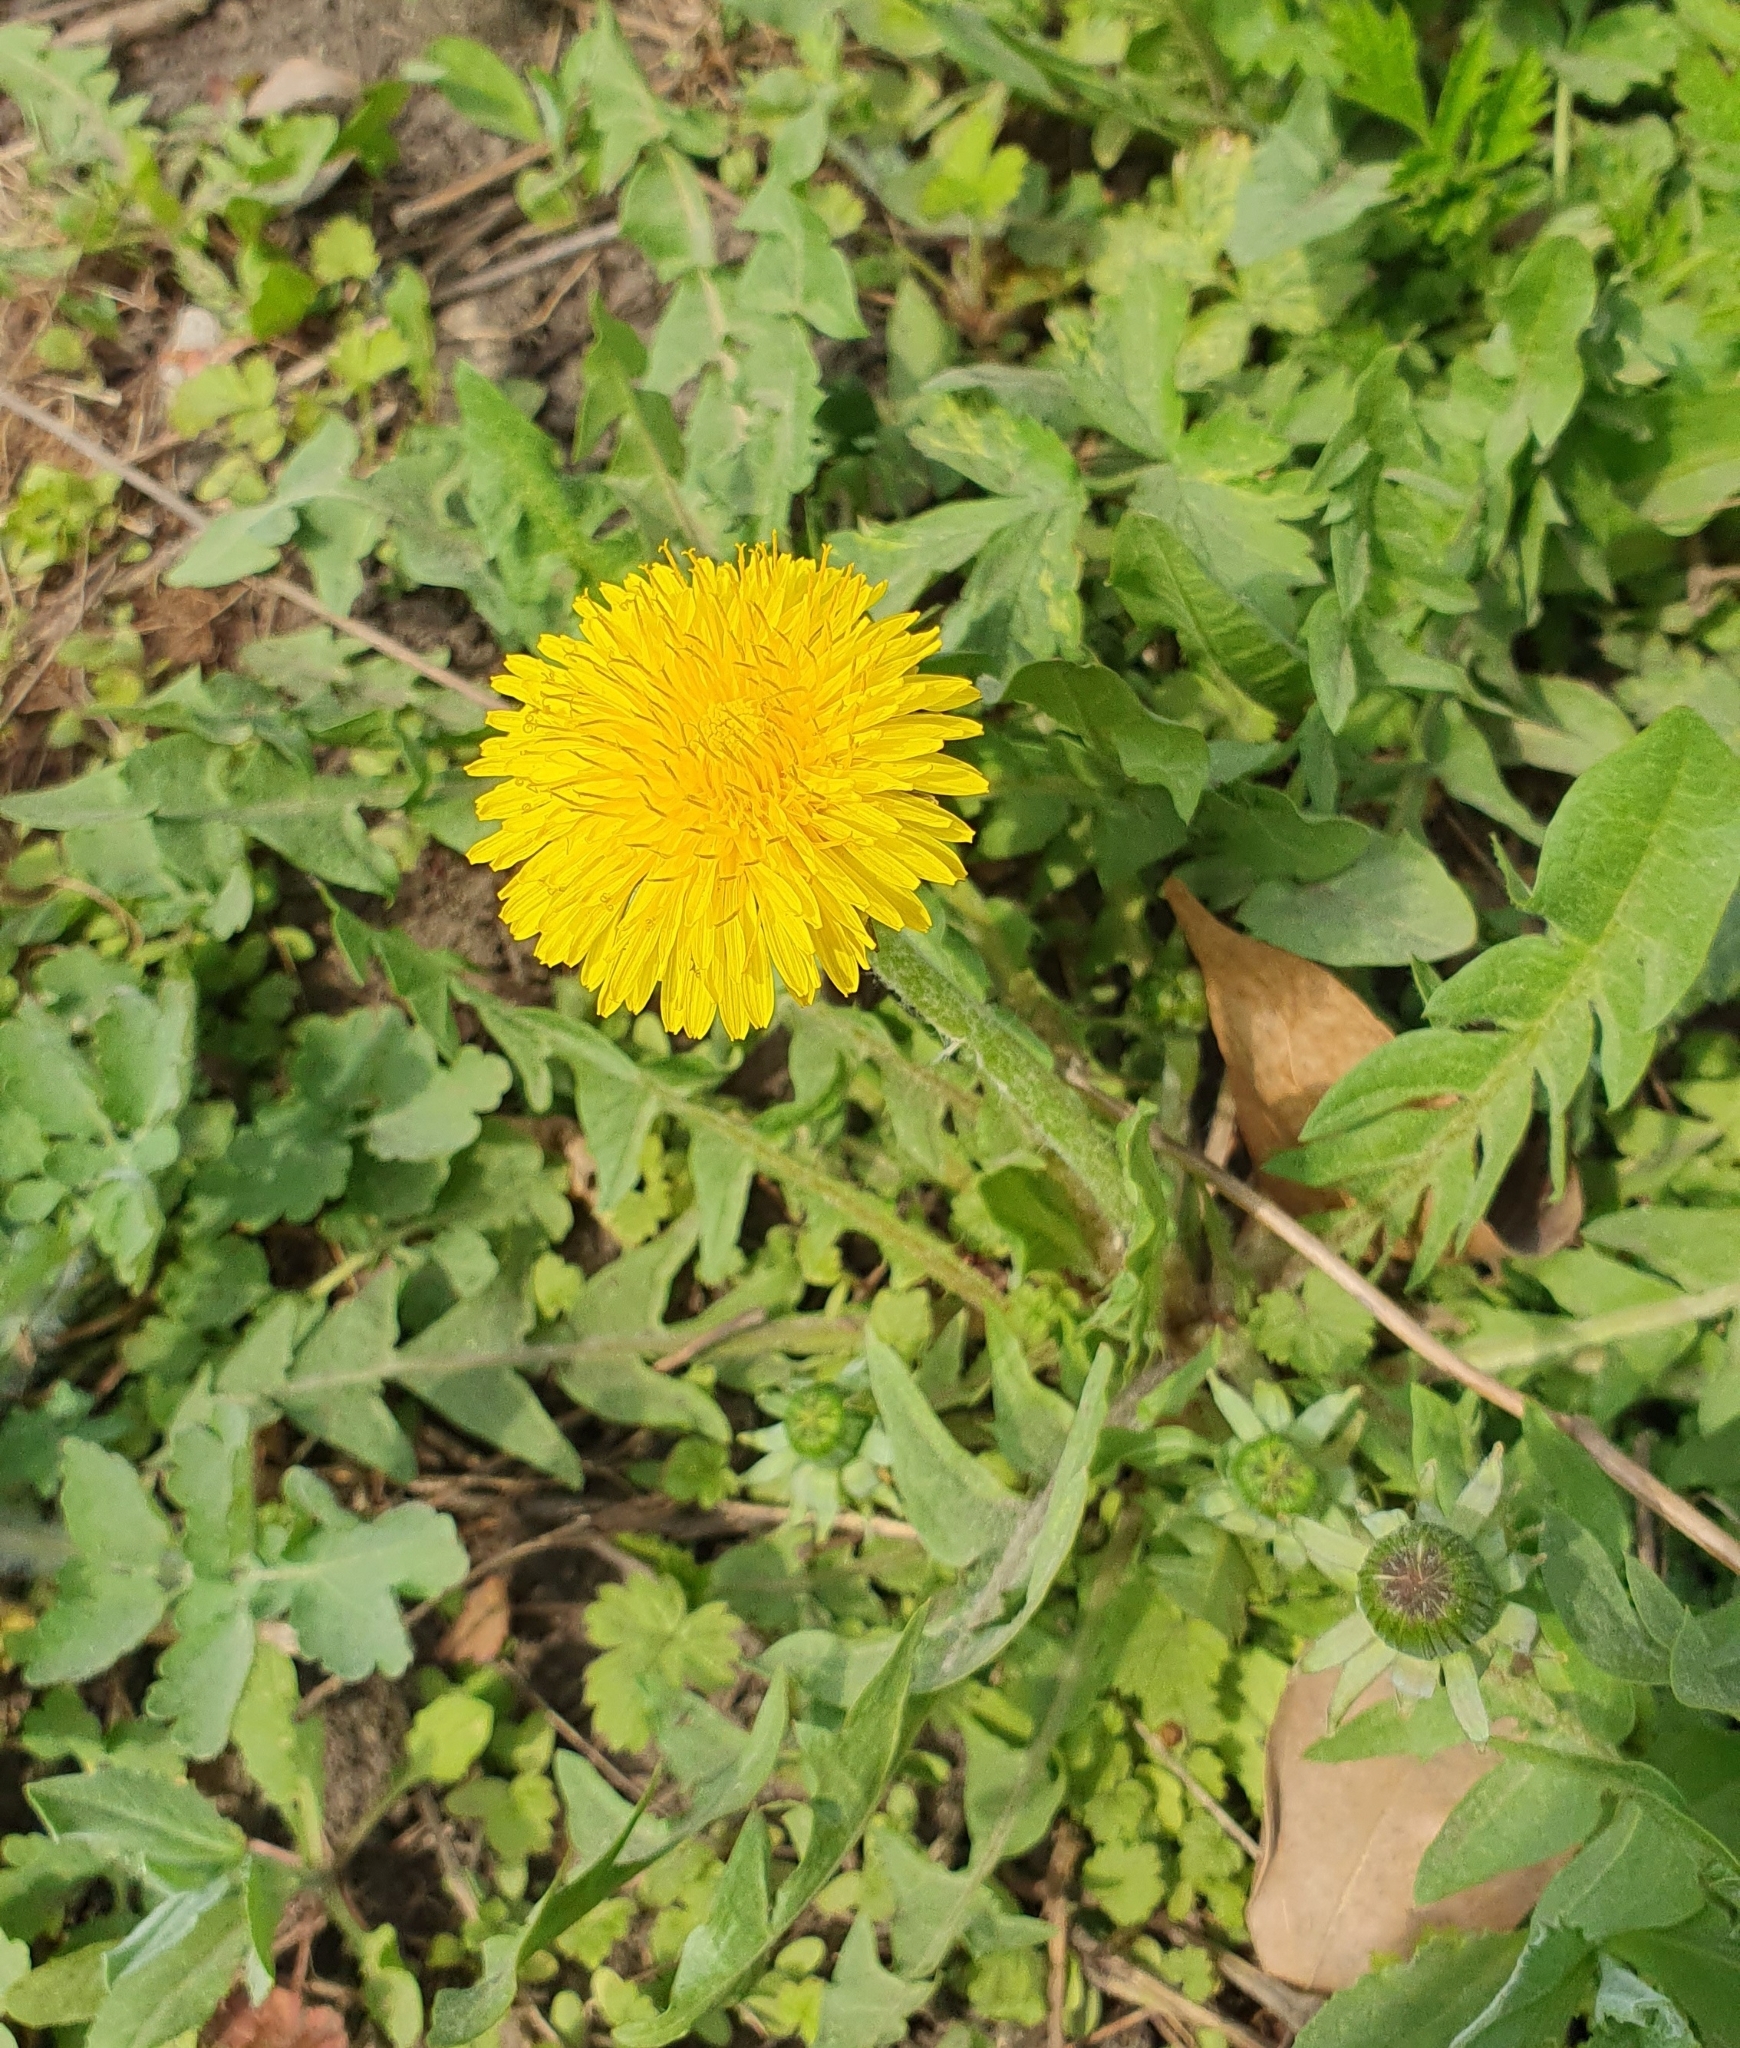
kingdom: Plantae
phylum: Tracheophyta
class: Magnoliopsida
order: Asterales
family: Asteraceae
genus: Taraxacum
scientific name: Taraxacum officinale
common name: Common dandelion
